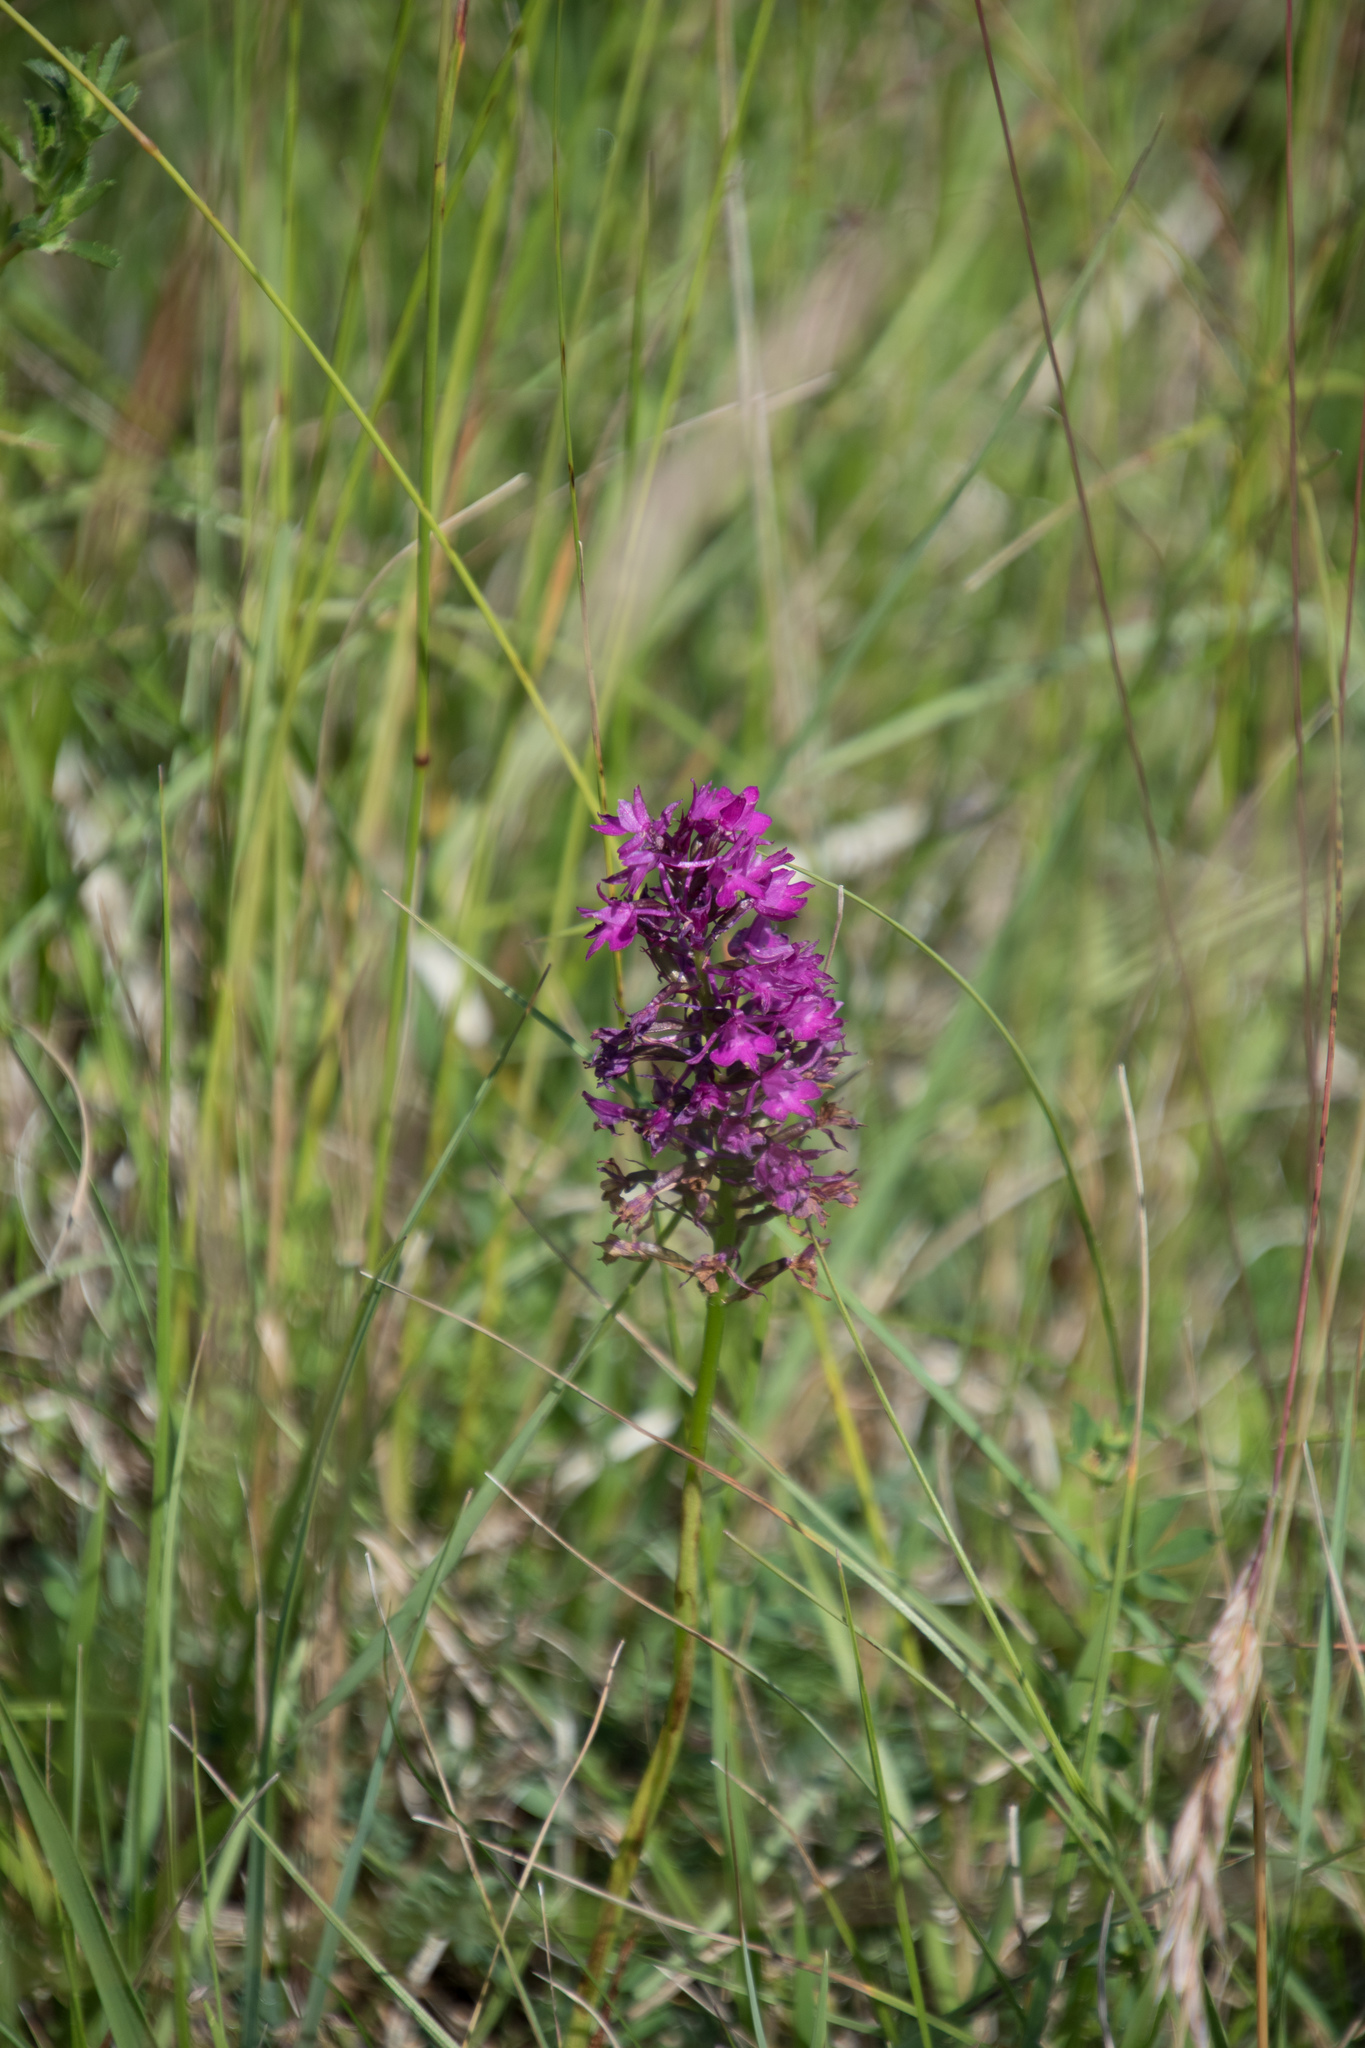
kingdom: Plantae
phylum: Tracheophyta
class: Liliopsida
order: Asparagales
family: Orchidaceae
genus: Anacamptis
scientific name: Anacamptis pyramidalis
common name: Pyramidal orchid
